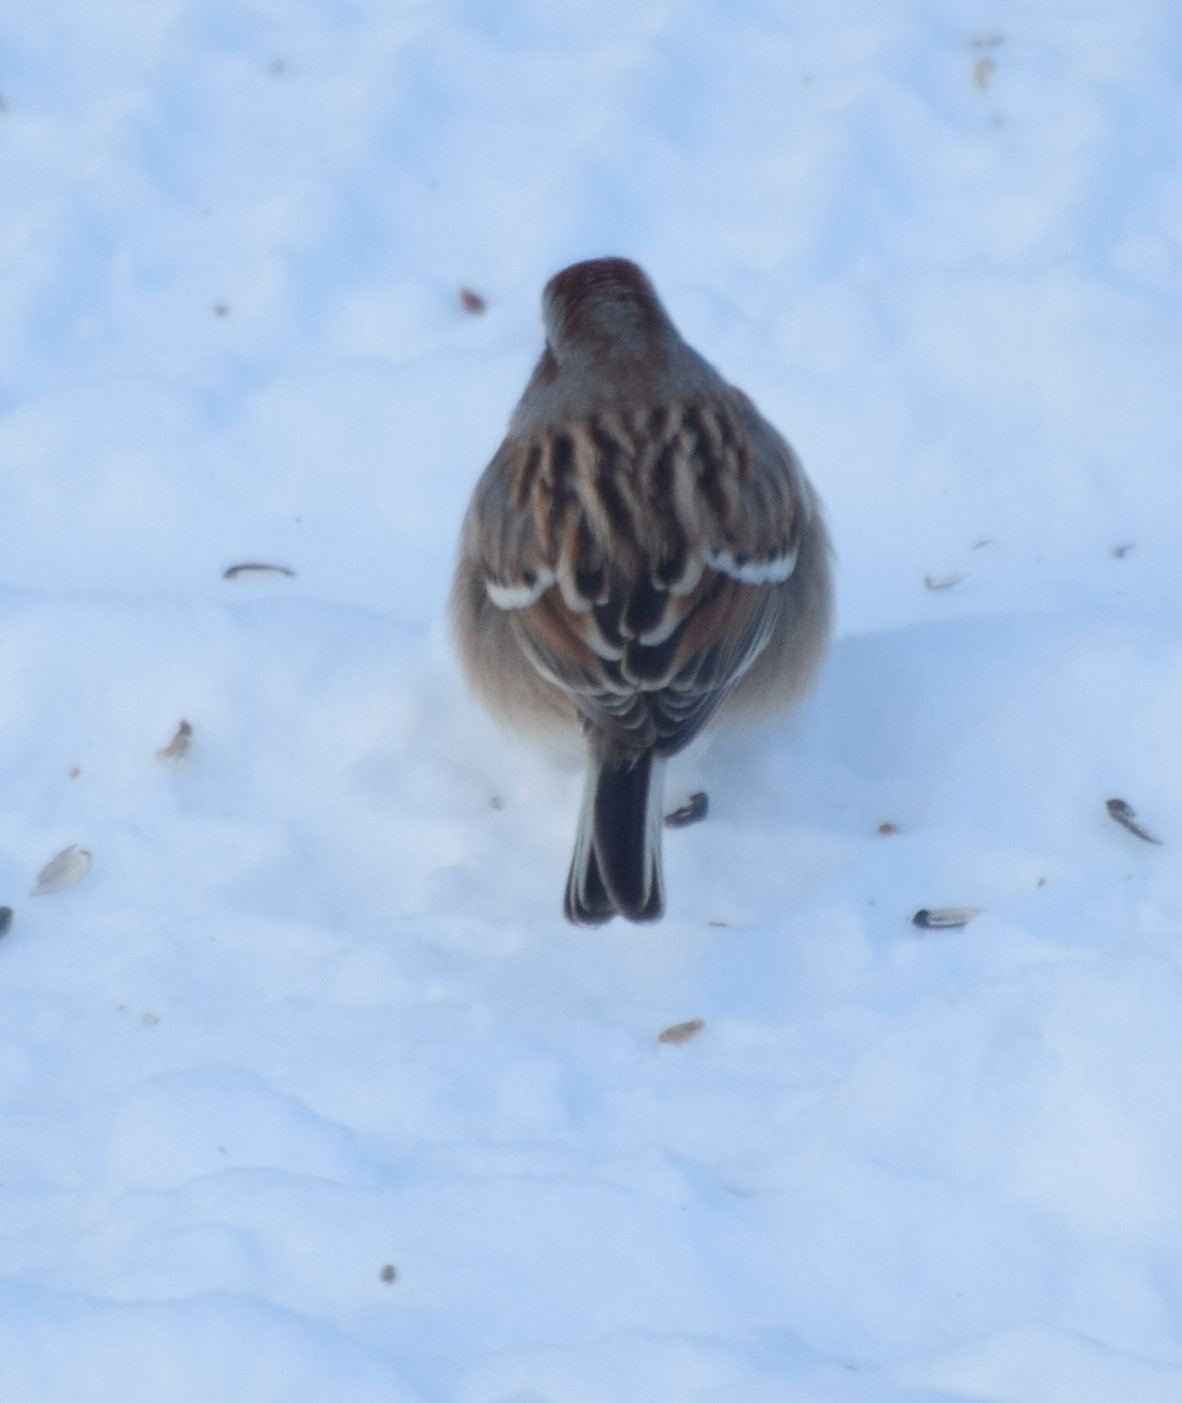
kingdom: Animalia
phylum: Chordata
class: Aves
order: Passeriformes
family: Passerellidae
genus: Spizelloides
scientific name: Spizelloides arborea
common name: American tree sparrow
